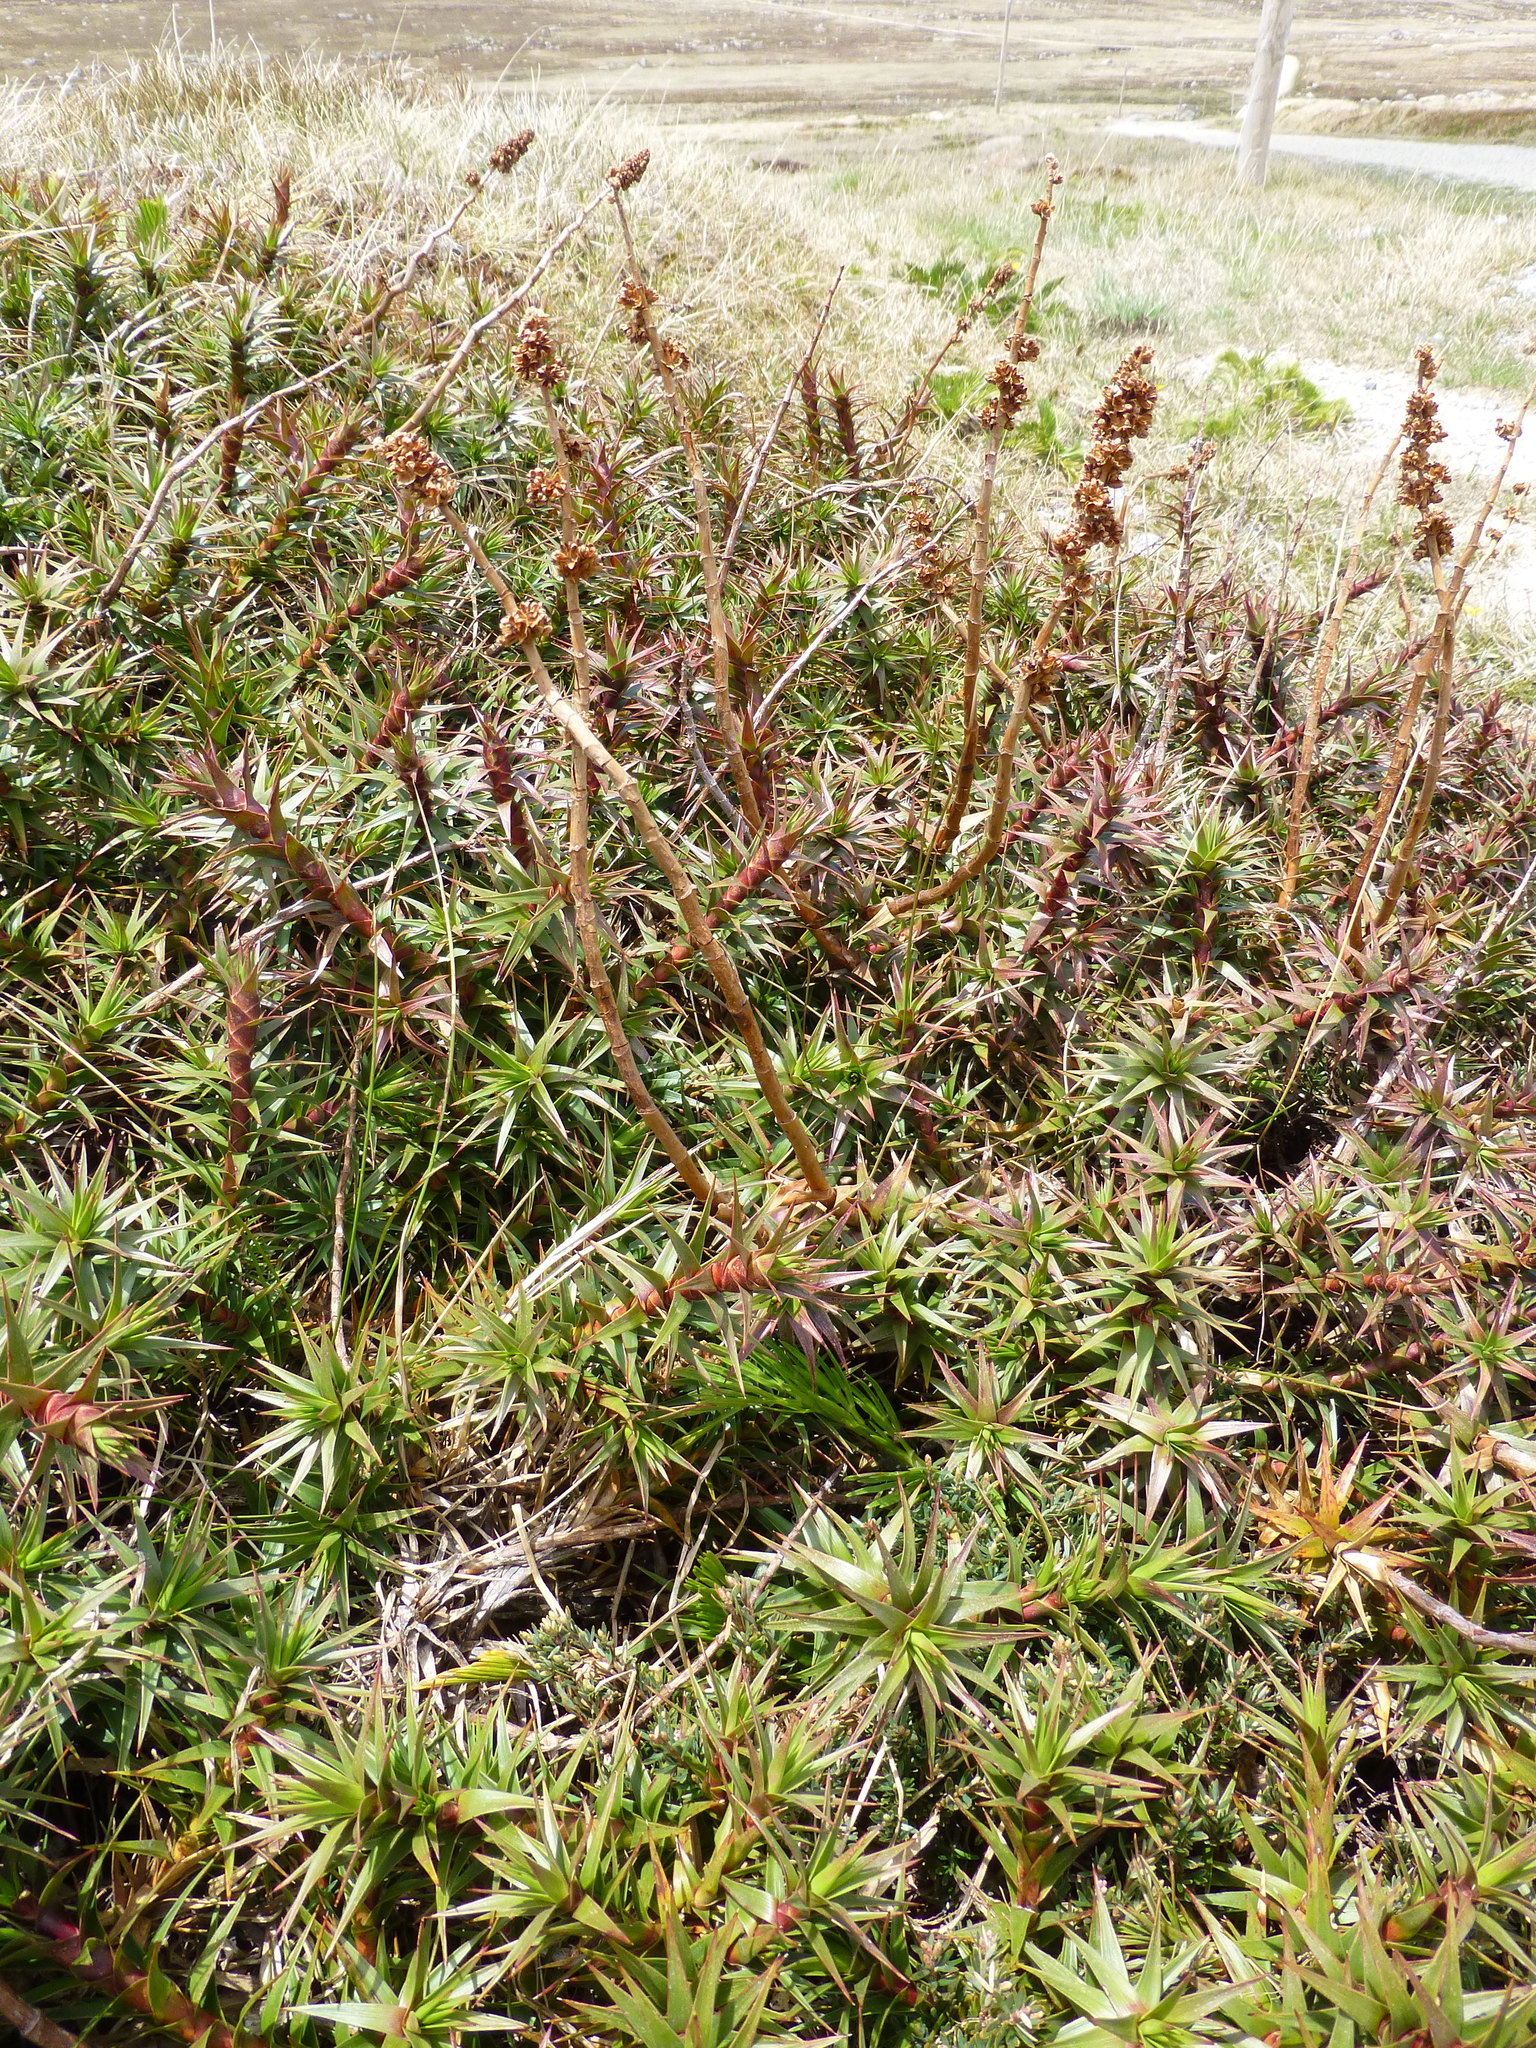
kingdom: Plantae
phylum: Tracheophyta
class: Magnoliopsida
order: Ericales
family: Ericaceae
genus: Dracophyllum
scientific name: Dracophyllum continentis
